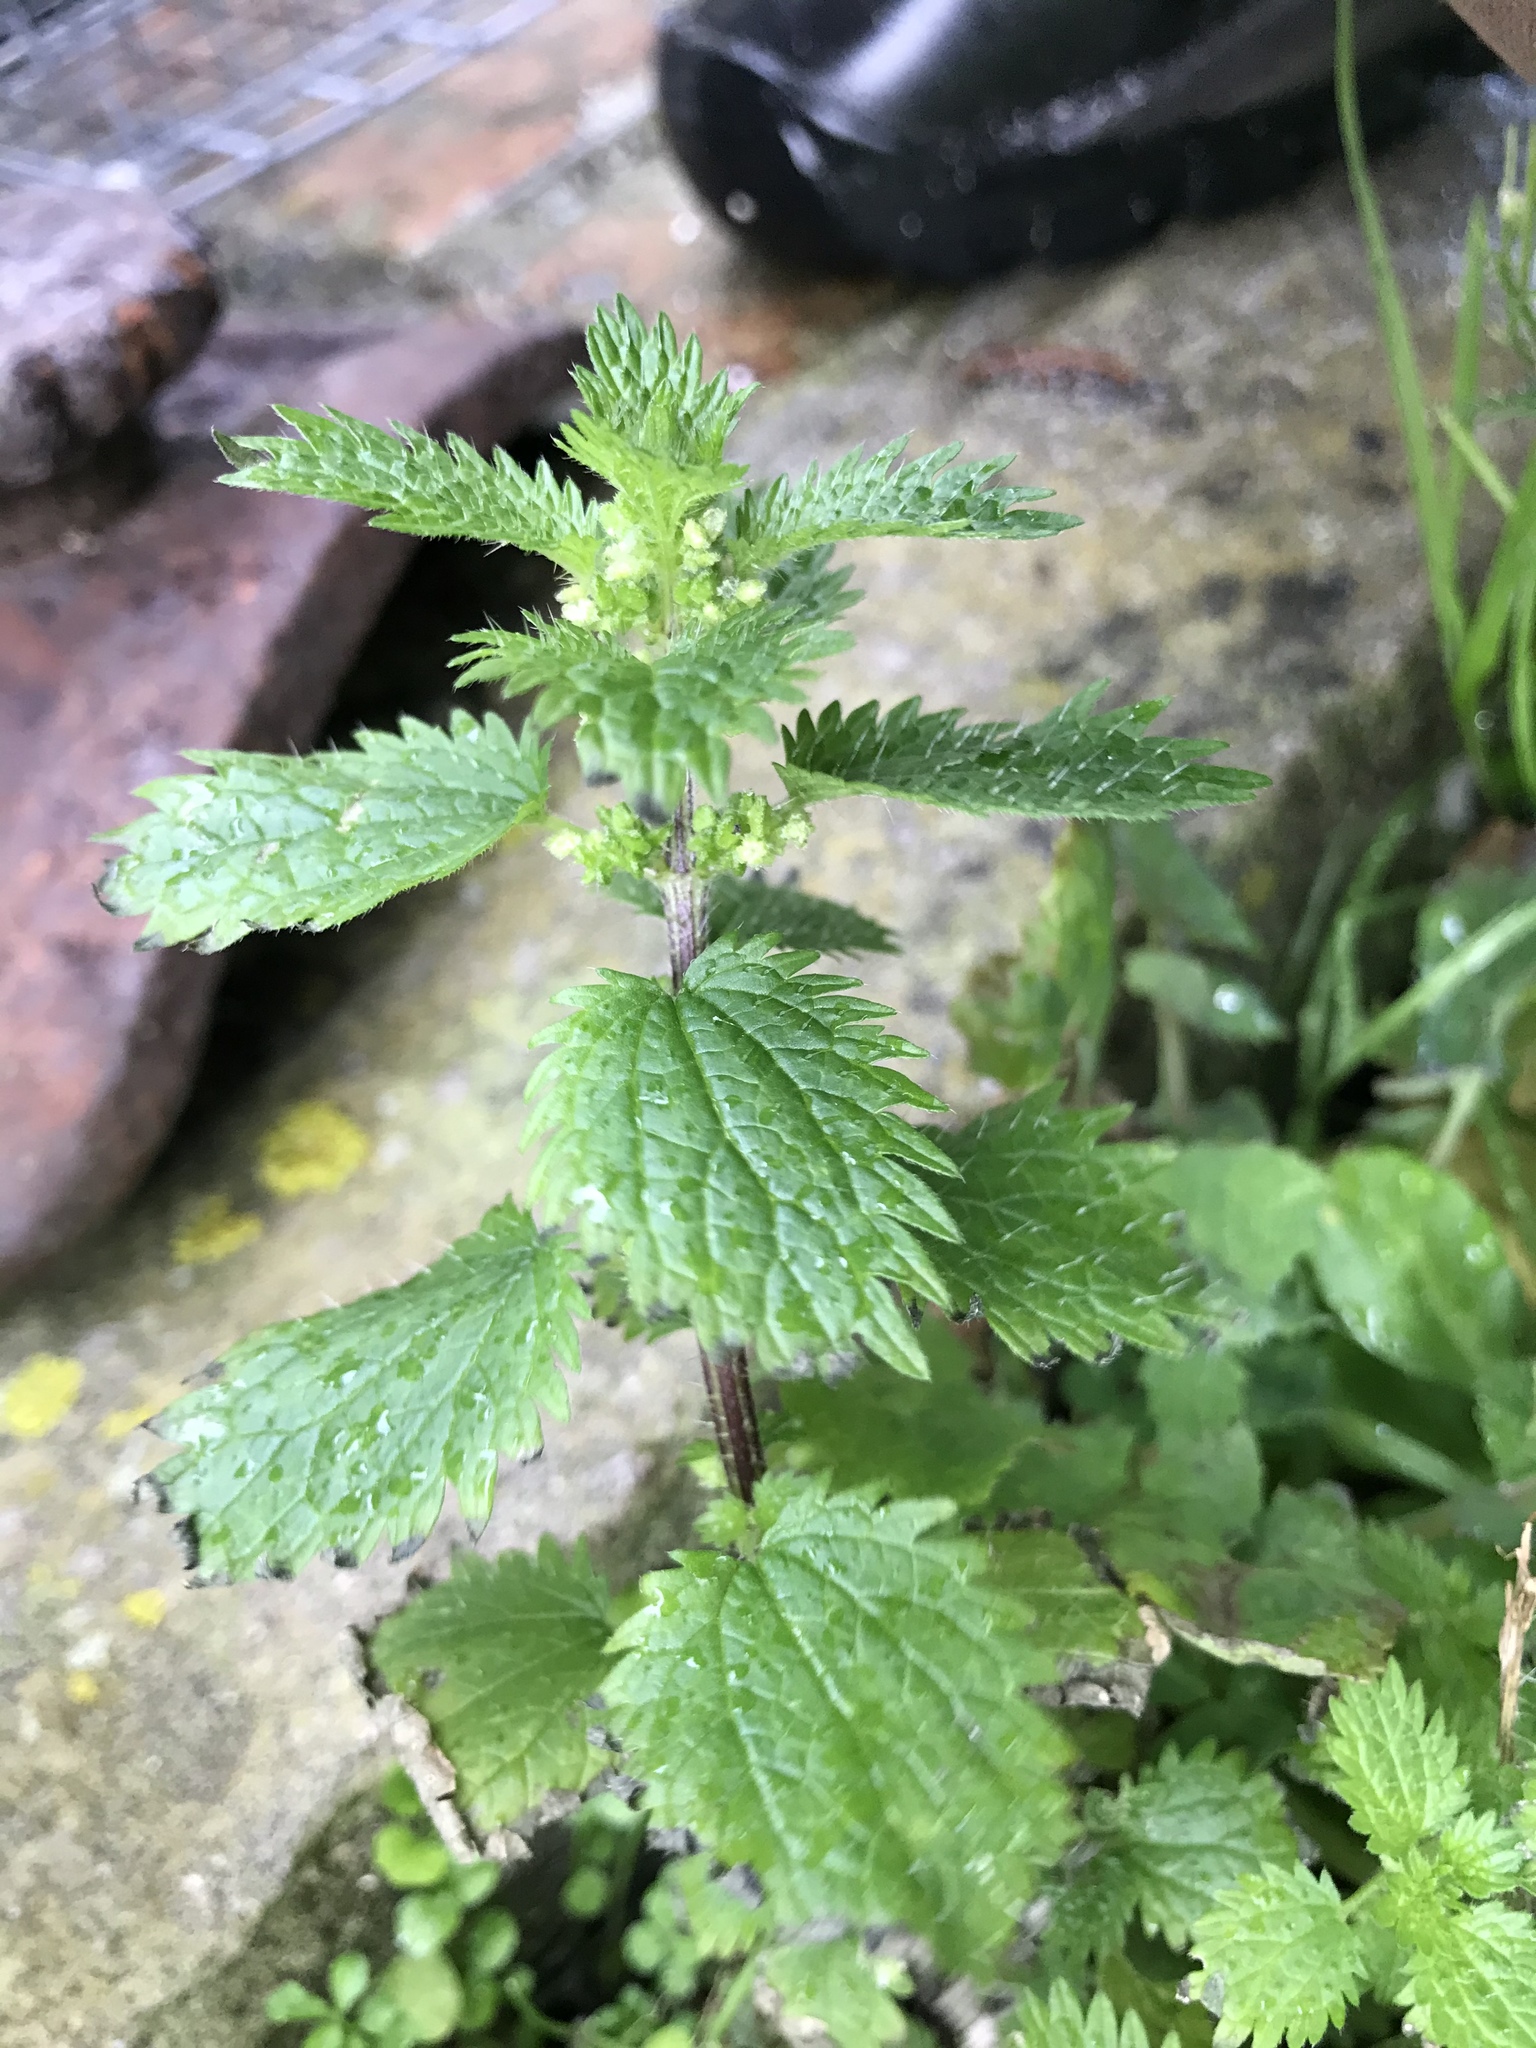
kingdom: Plantae
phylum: Tracheophyta
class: Magnoliopsida
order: Rosales
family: Urticaceae
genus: Urtica
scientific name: Urtica urens
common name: Dwarf nettle
